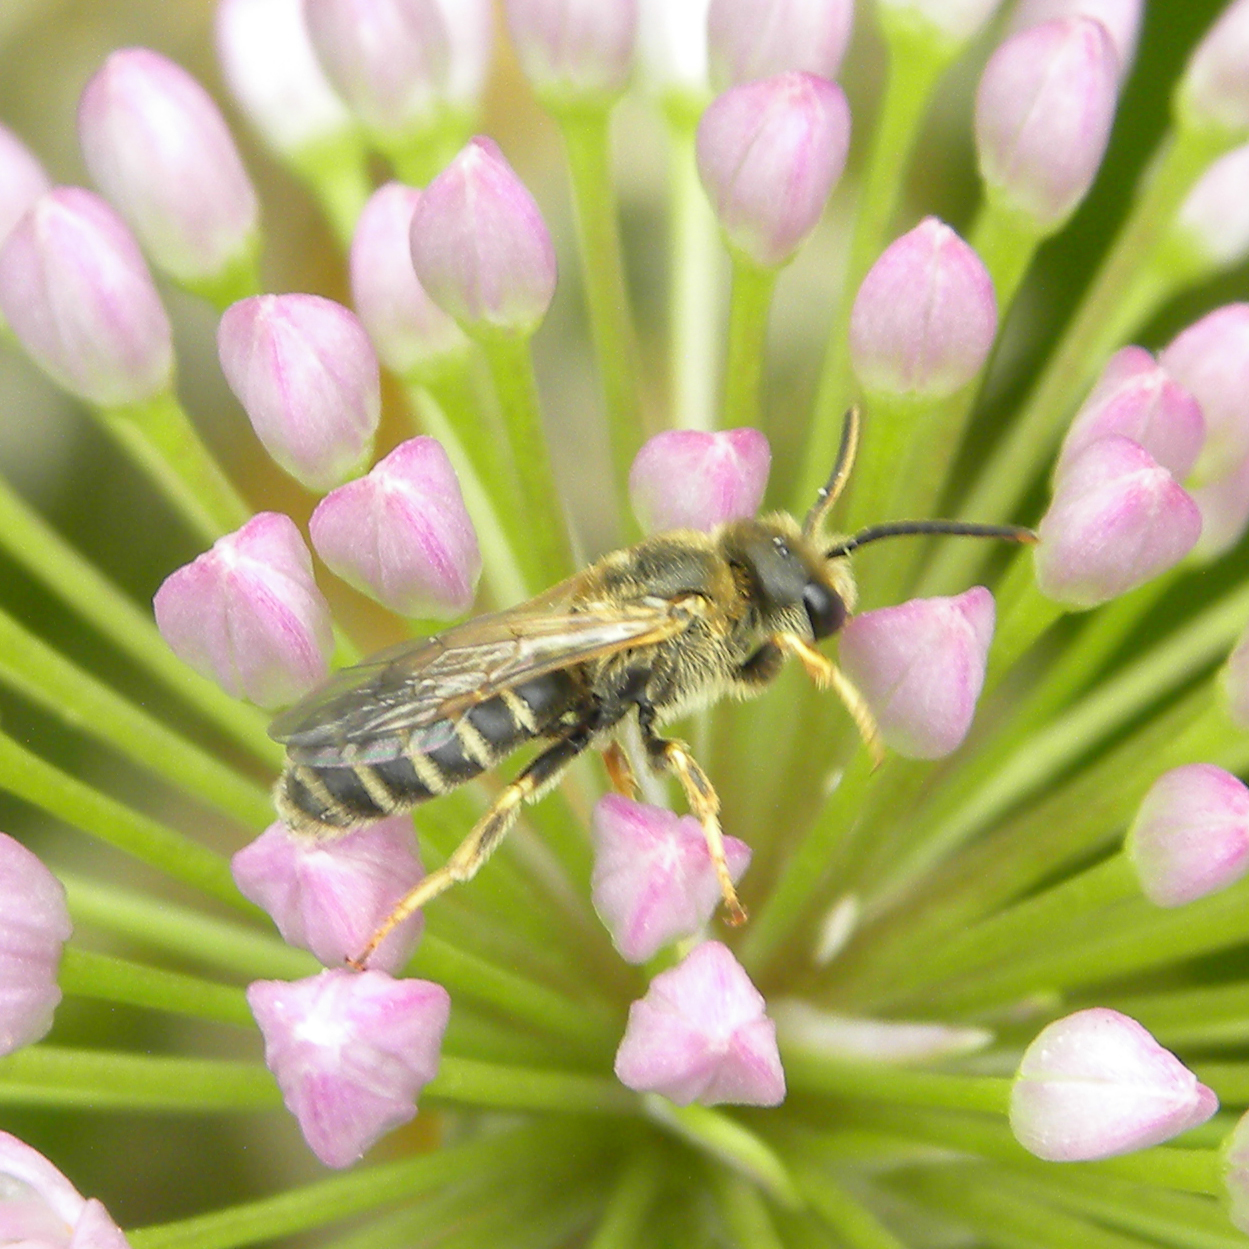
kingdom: Animalia
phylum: Arthropoda
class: Insecta
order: Hymenoptera
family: Halictidae
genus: Halictus
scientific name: Halictus ligatus
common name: Ligated furrow bee
